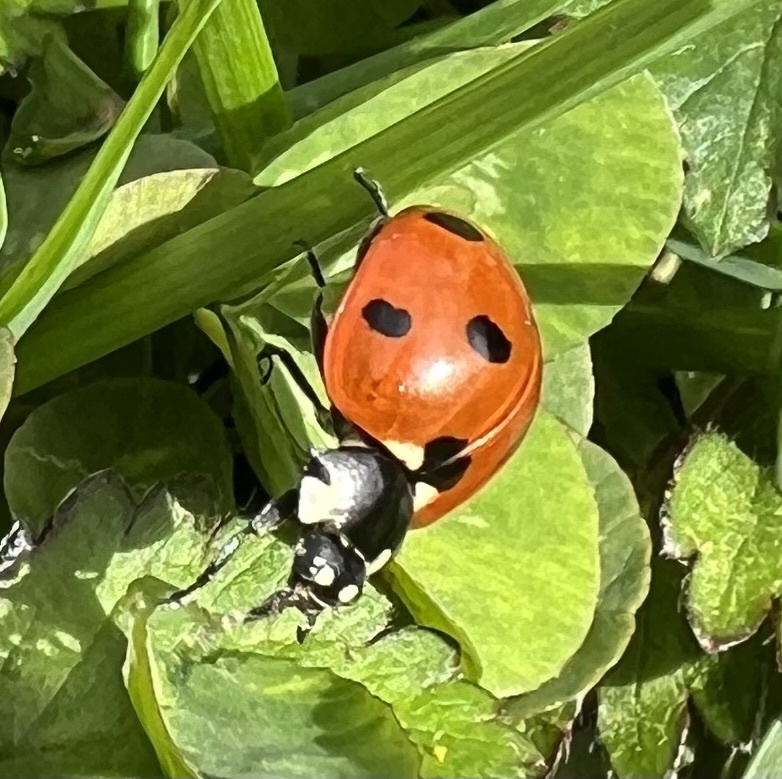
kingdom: Animalia
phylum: Arthropoda
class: Insecta
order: Coleoptera
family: Coccinellidae
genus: Coccinella
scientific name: Coccinella septempunctata
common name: Sevenspotted lady beetle
